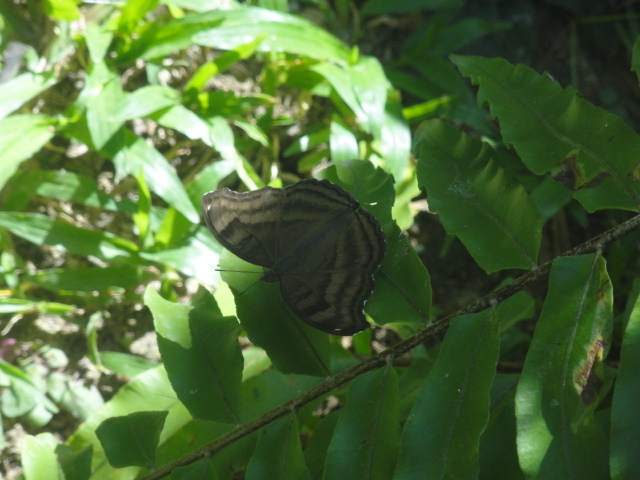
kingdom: Animalia
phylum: Arthropoda
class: Insecta
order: Lepidoptera
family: Nymphalidae
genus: Junonia
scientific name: Junonia iphita
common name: Chocolate pansy
